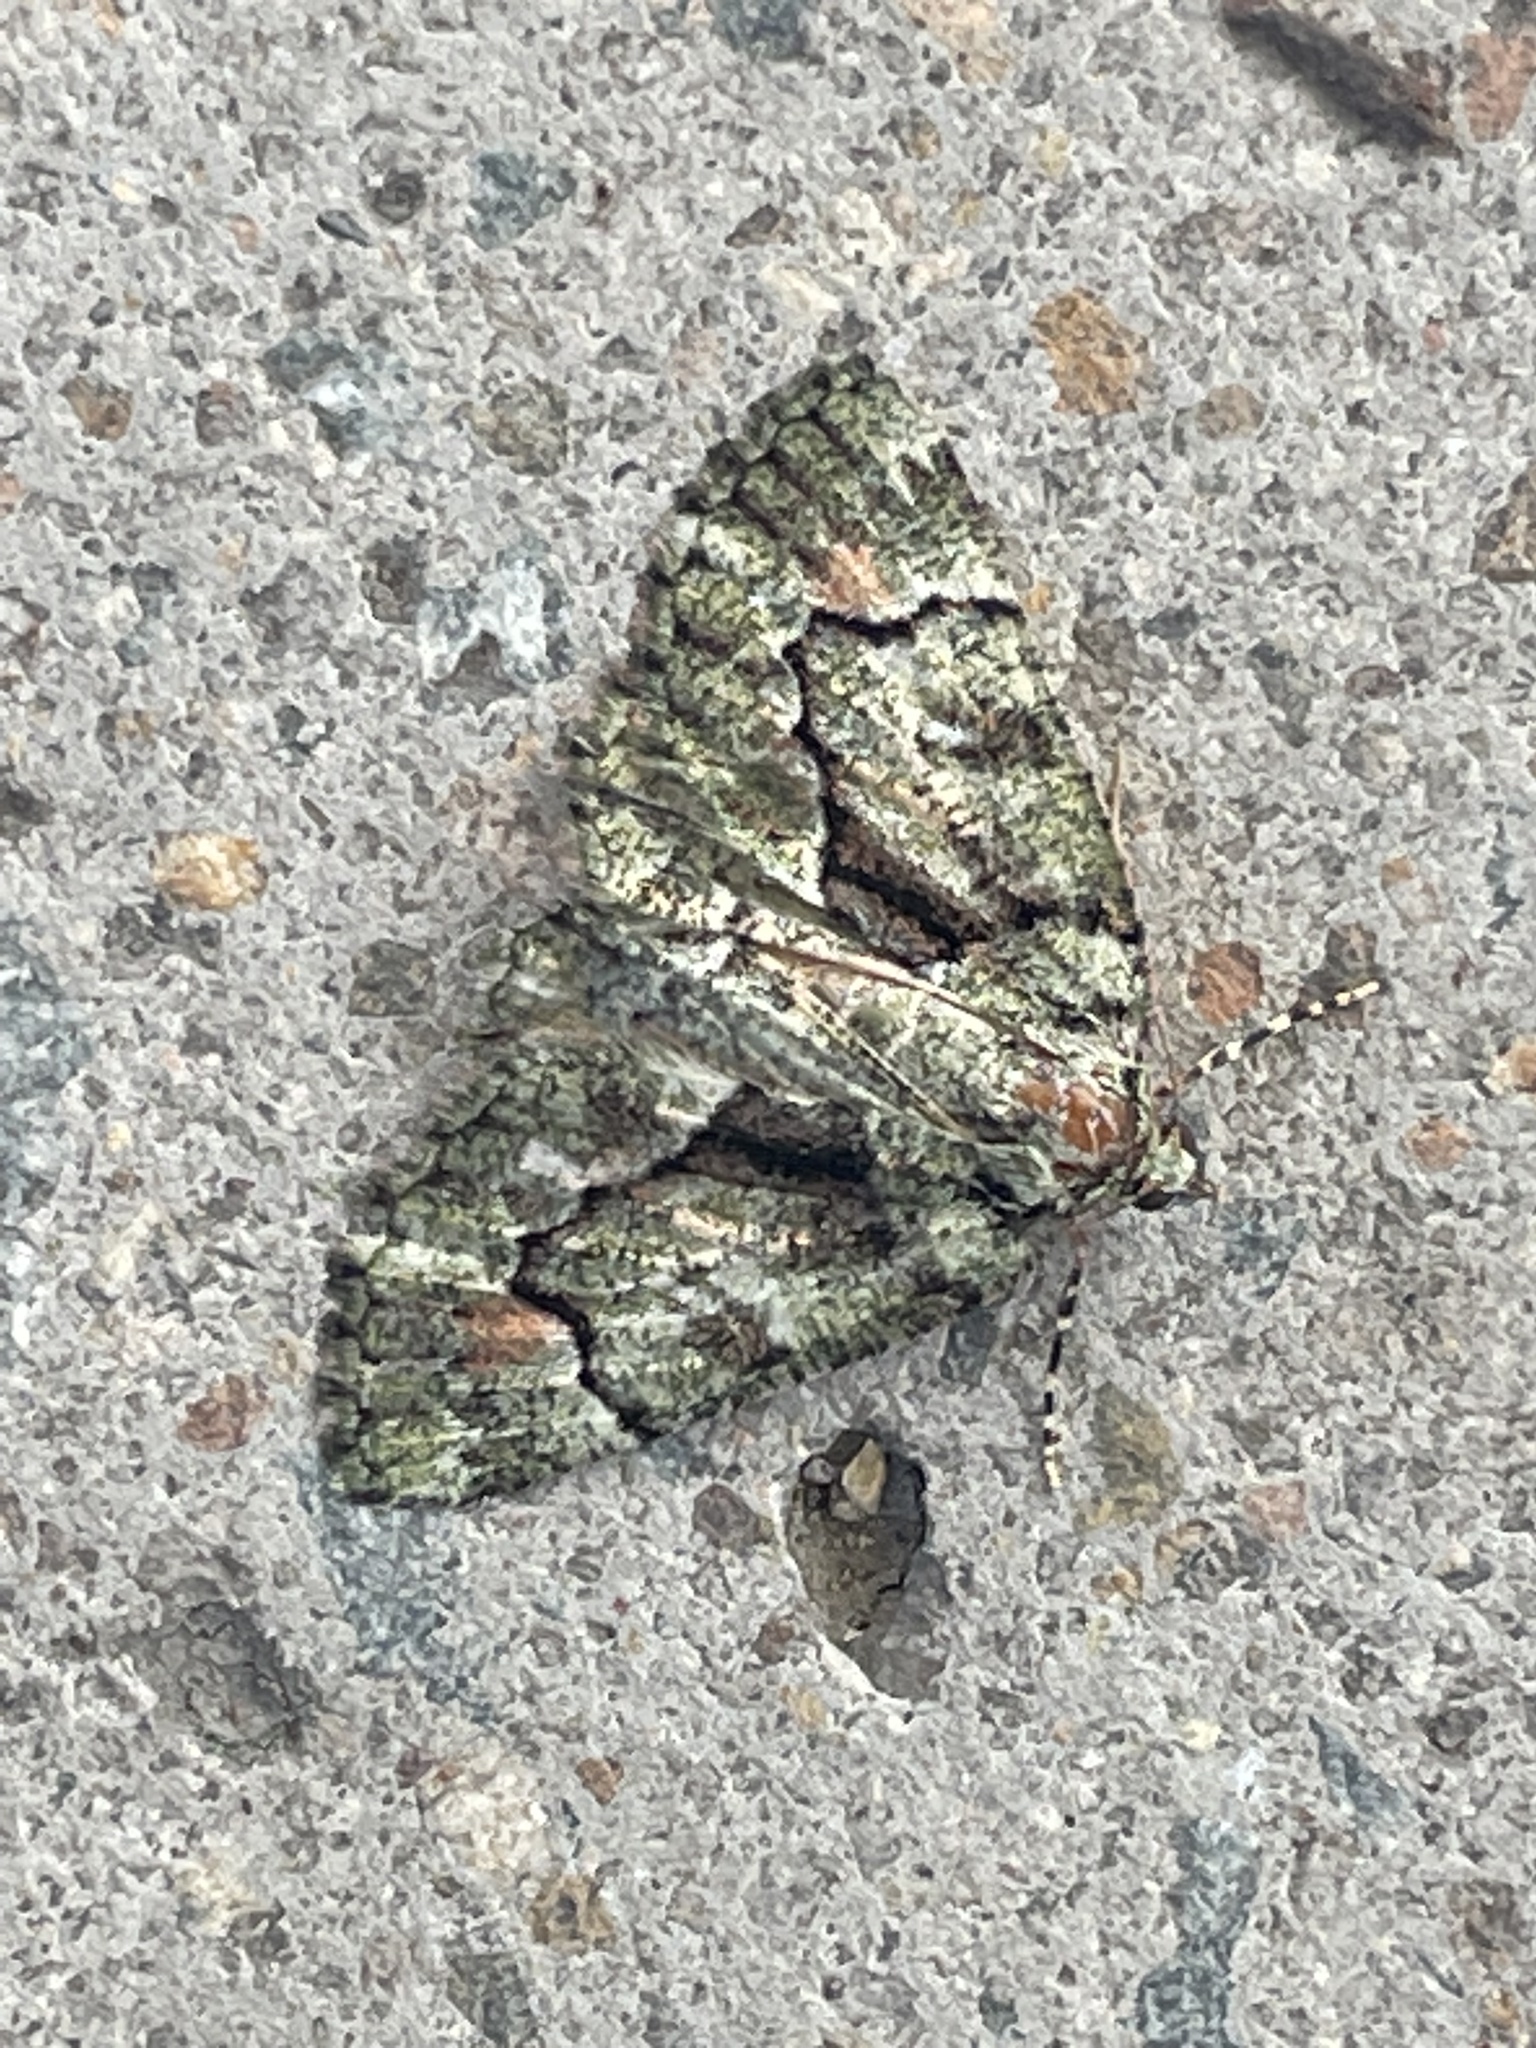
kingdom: Animalia
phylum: Arthropoda
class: Insecta
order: Lepidoptera
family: Geometridae
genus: Aeolochroma
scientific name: Aeolochroma metarhodata
